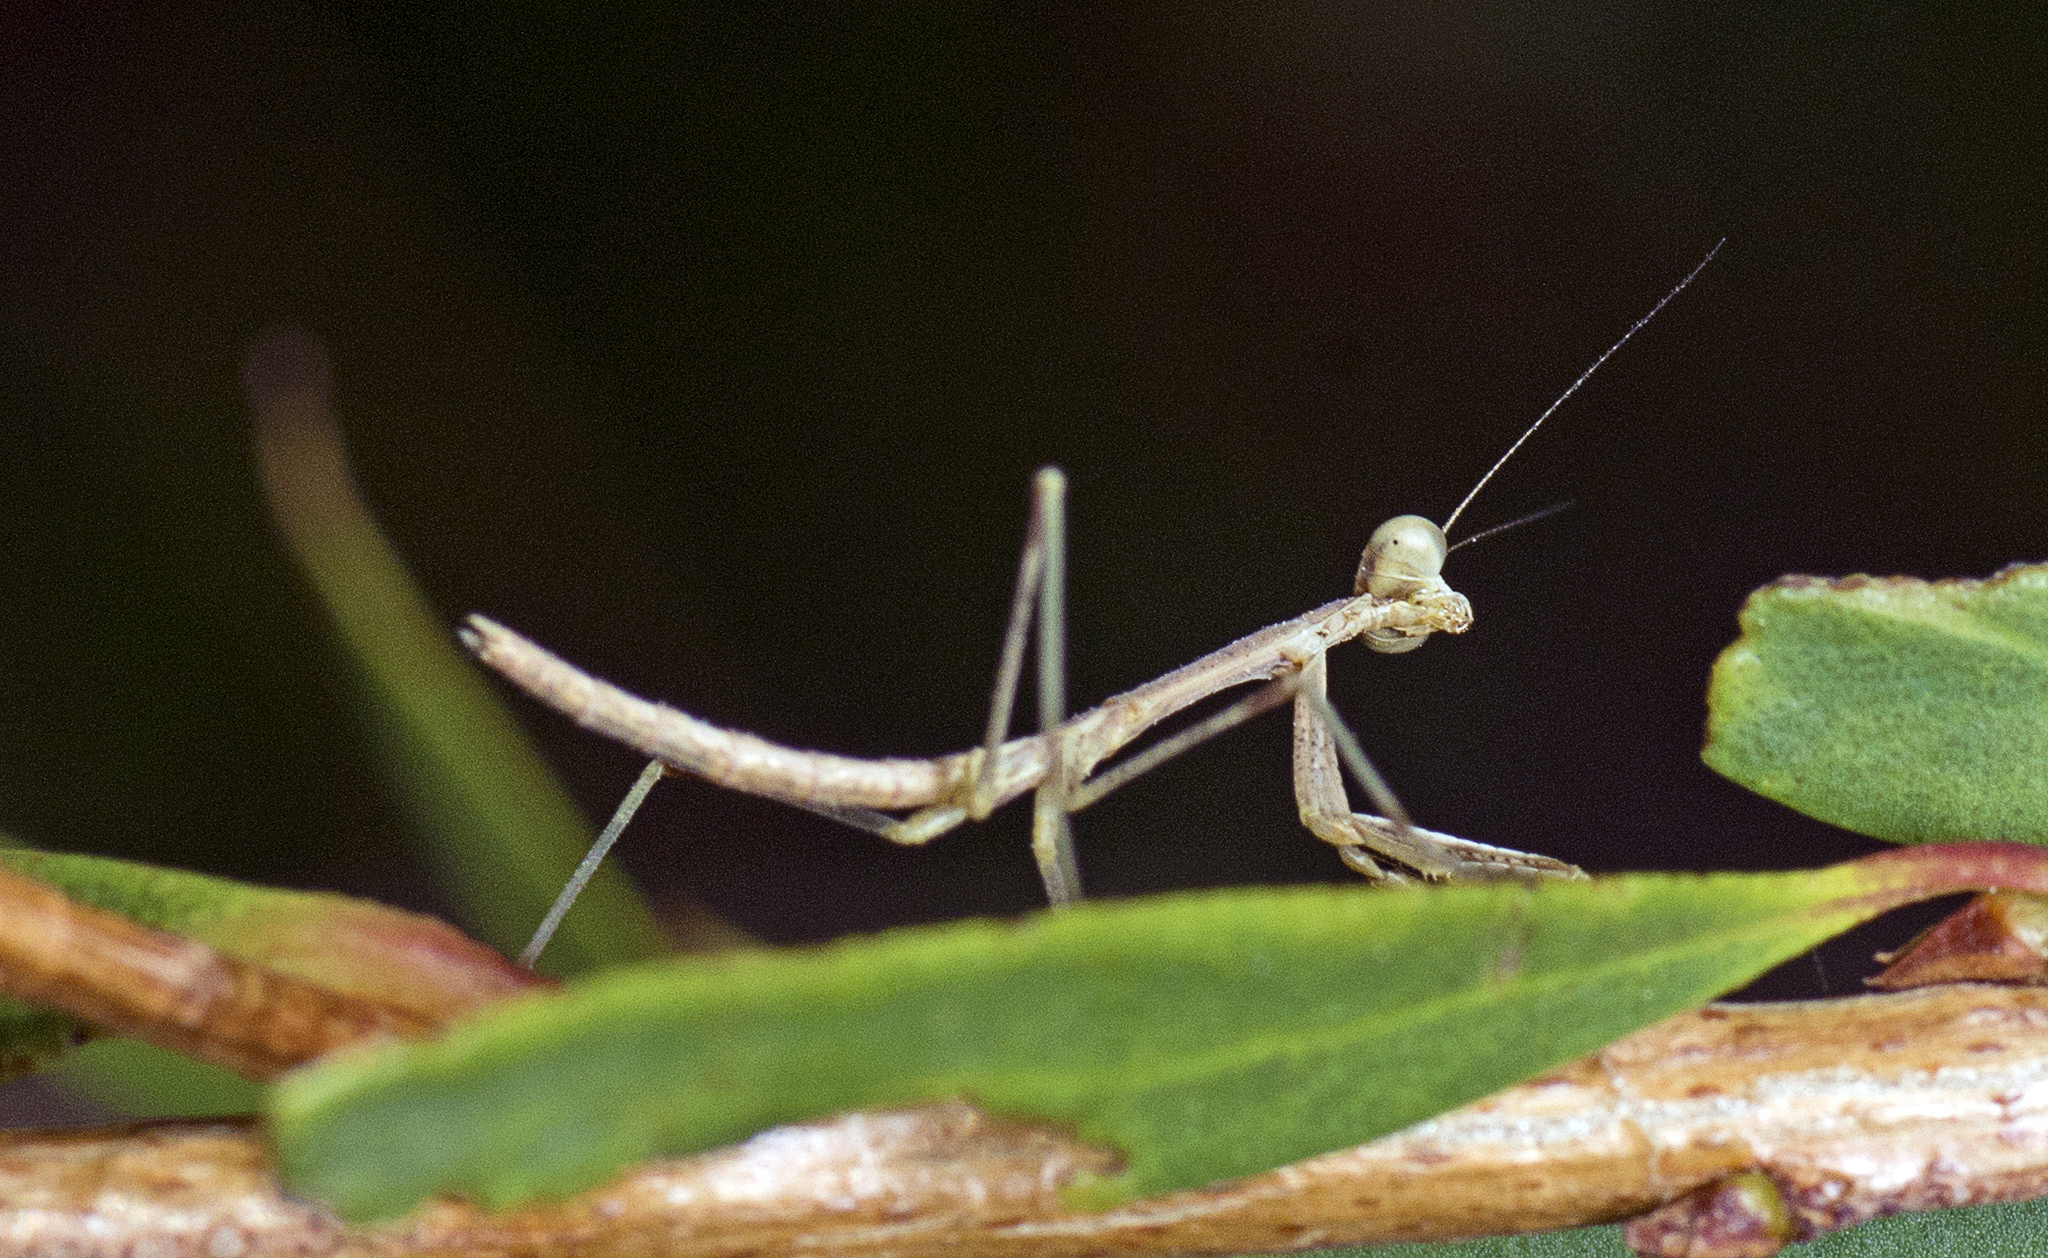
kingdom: Animalia
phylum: Arthropoda
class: Insecta
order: Mantodea
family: Mantidae
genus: Archimantis
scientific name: Archimantis latistyla
